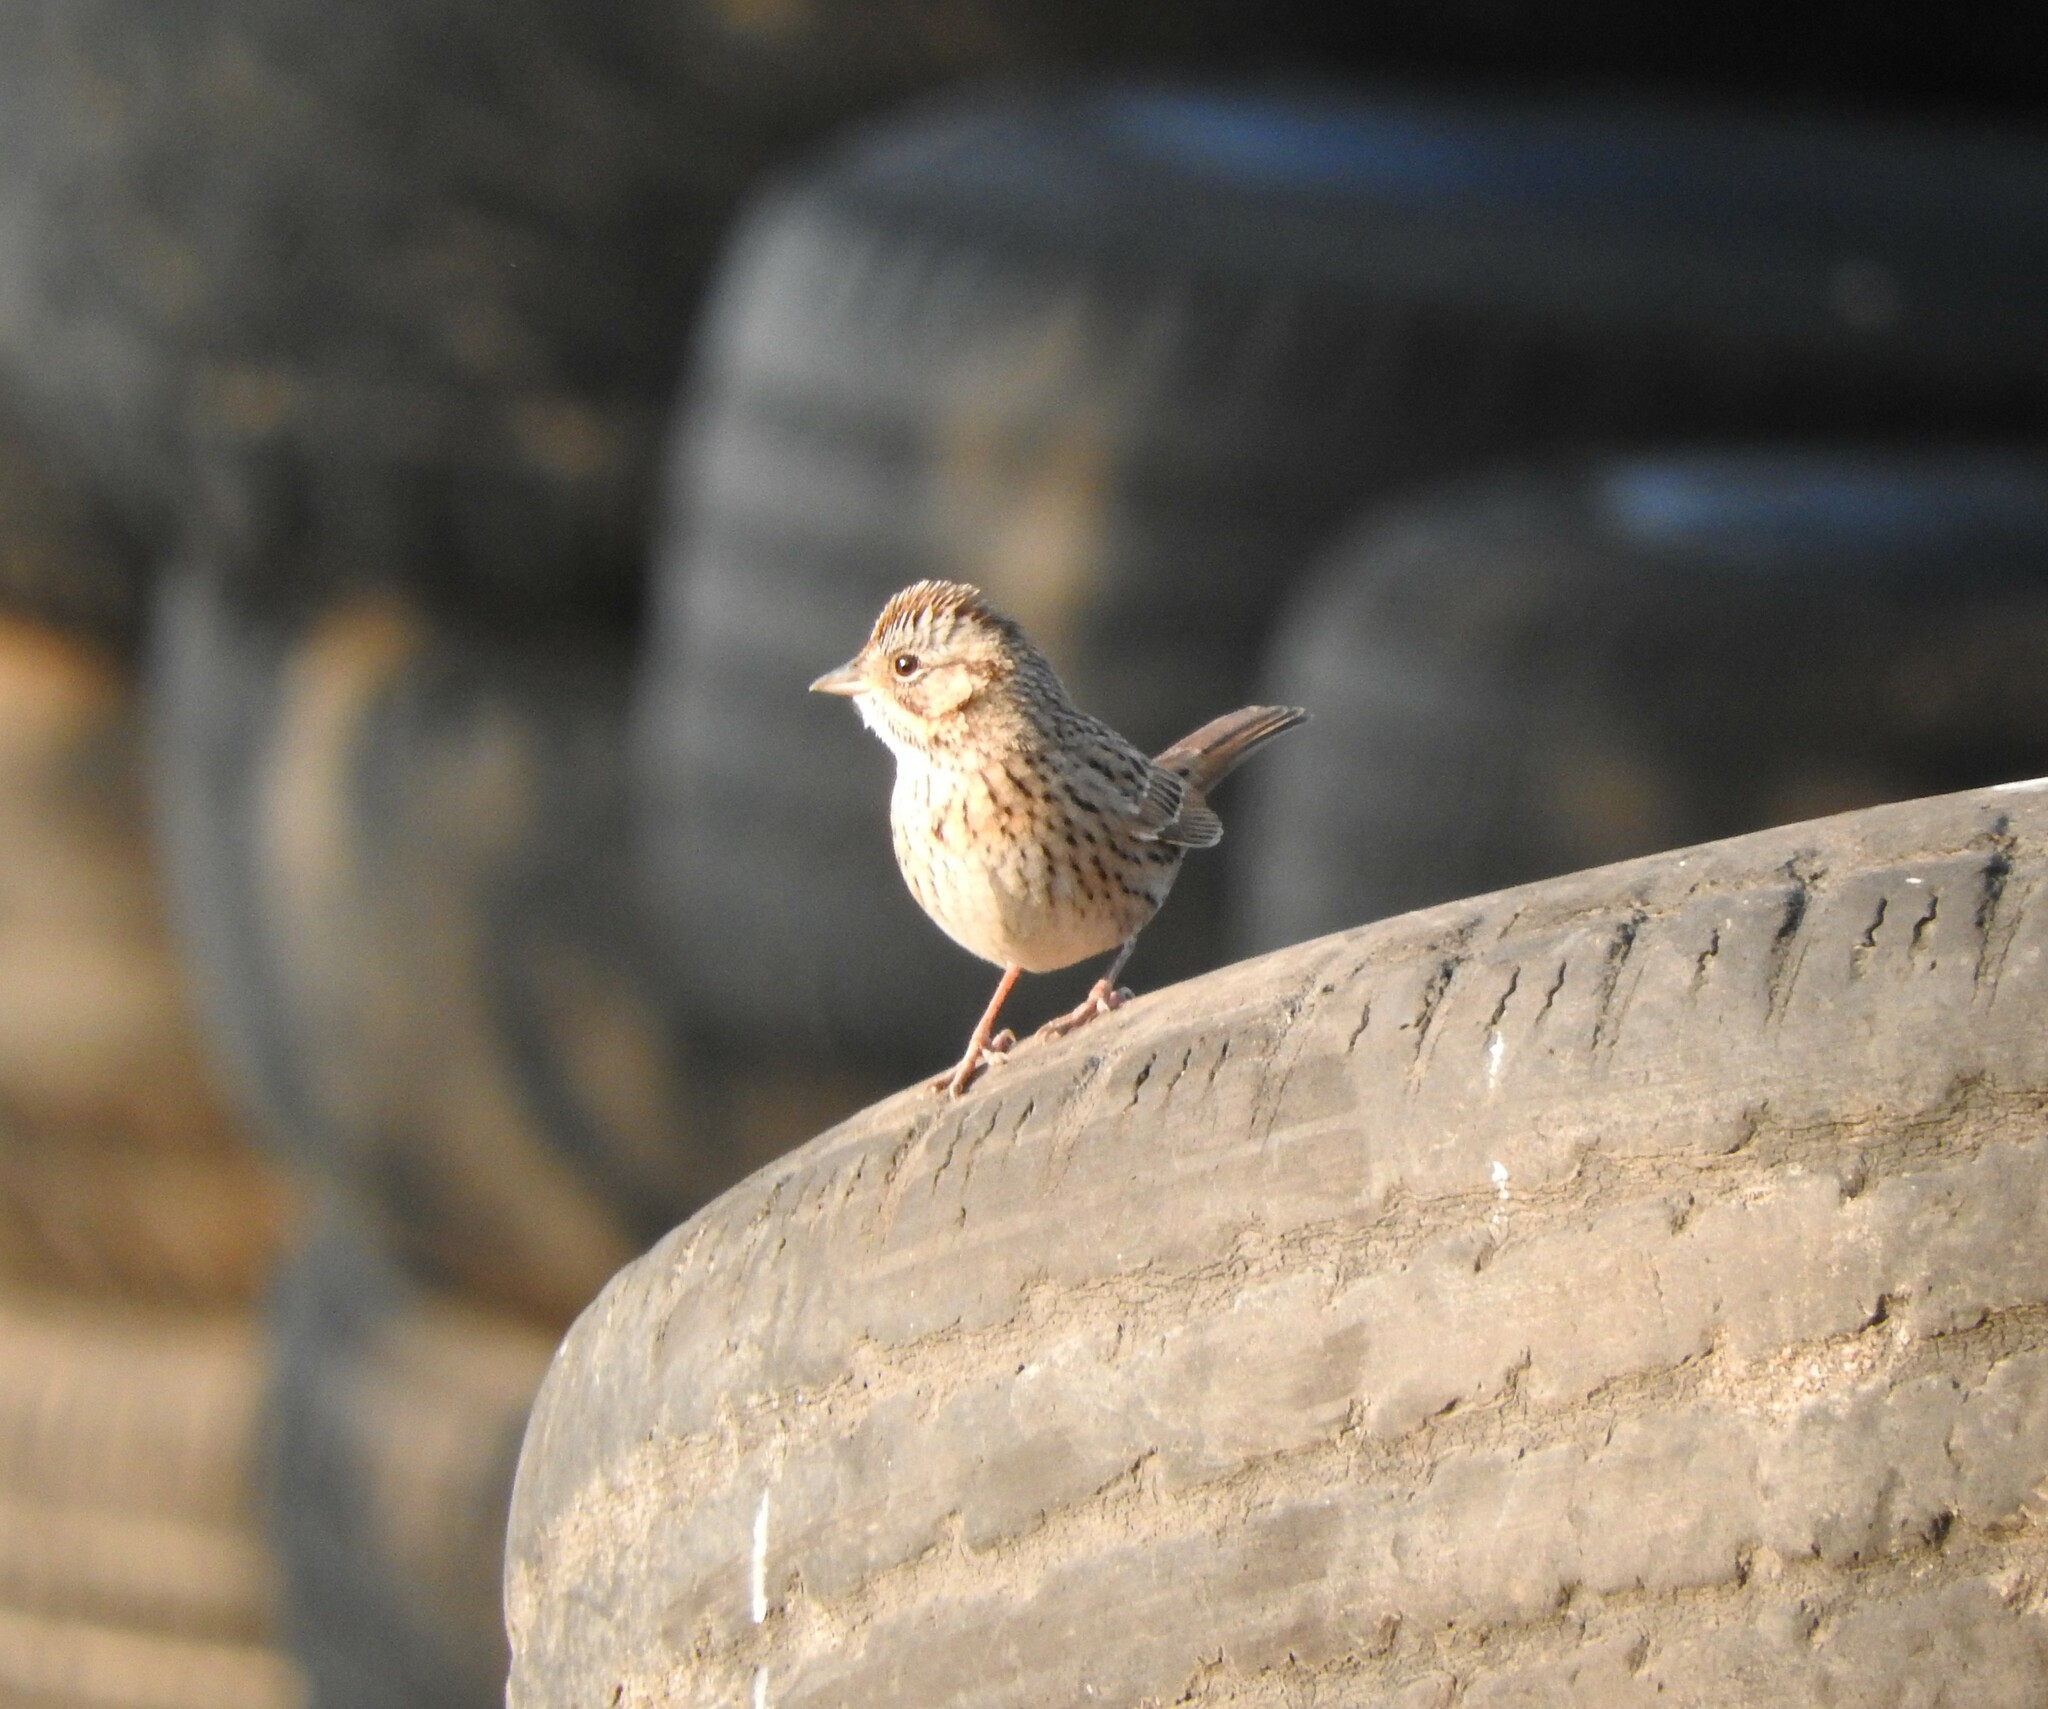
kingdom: Animalia
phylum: Chordata
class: Aves
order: Passeriformes
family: Passerellidae
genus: Melospiza
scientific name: Melospiza lincolnii
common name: Lincoln's sparrow
